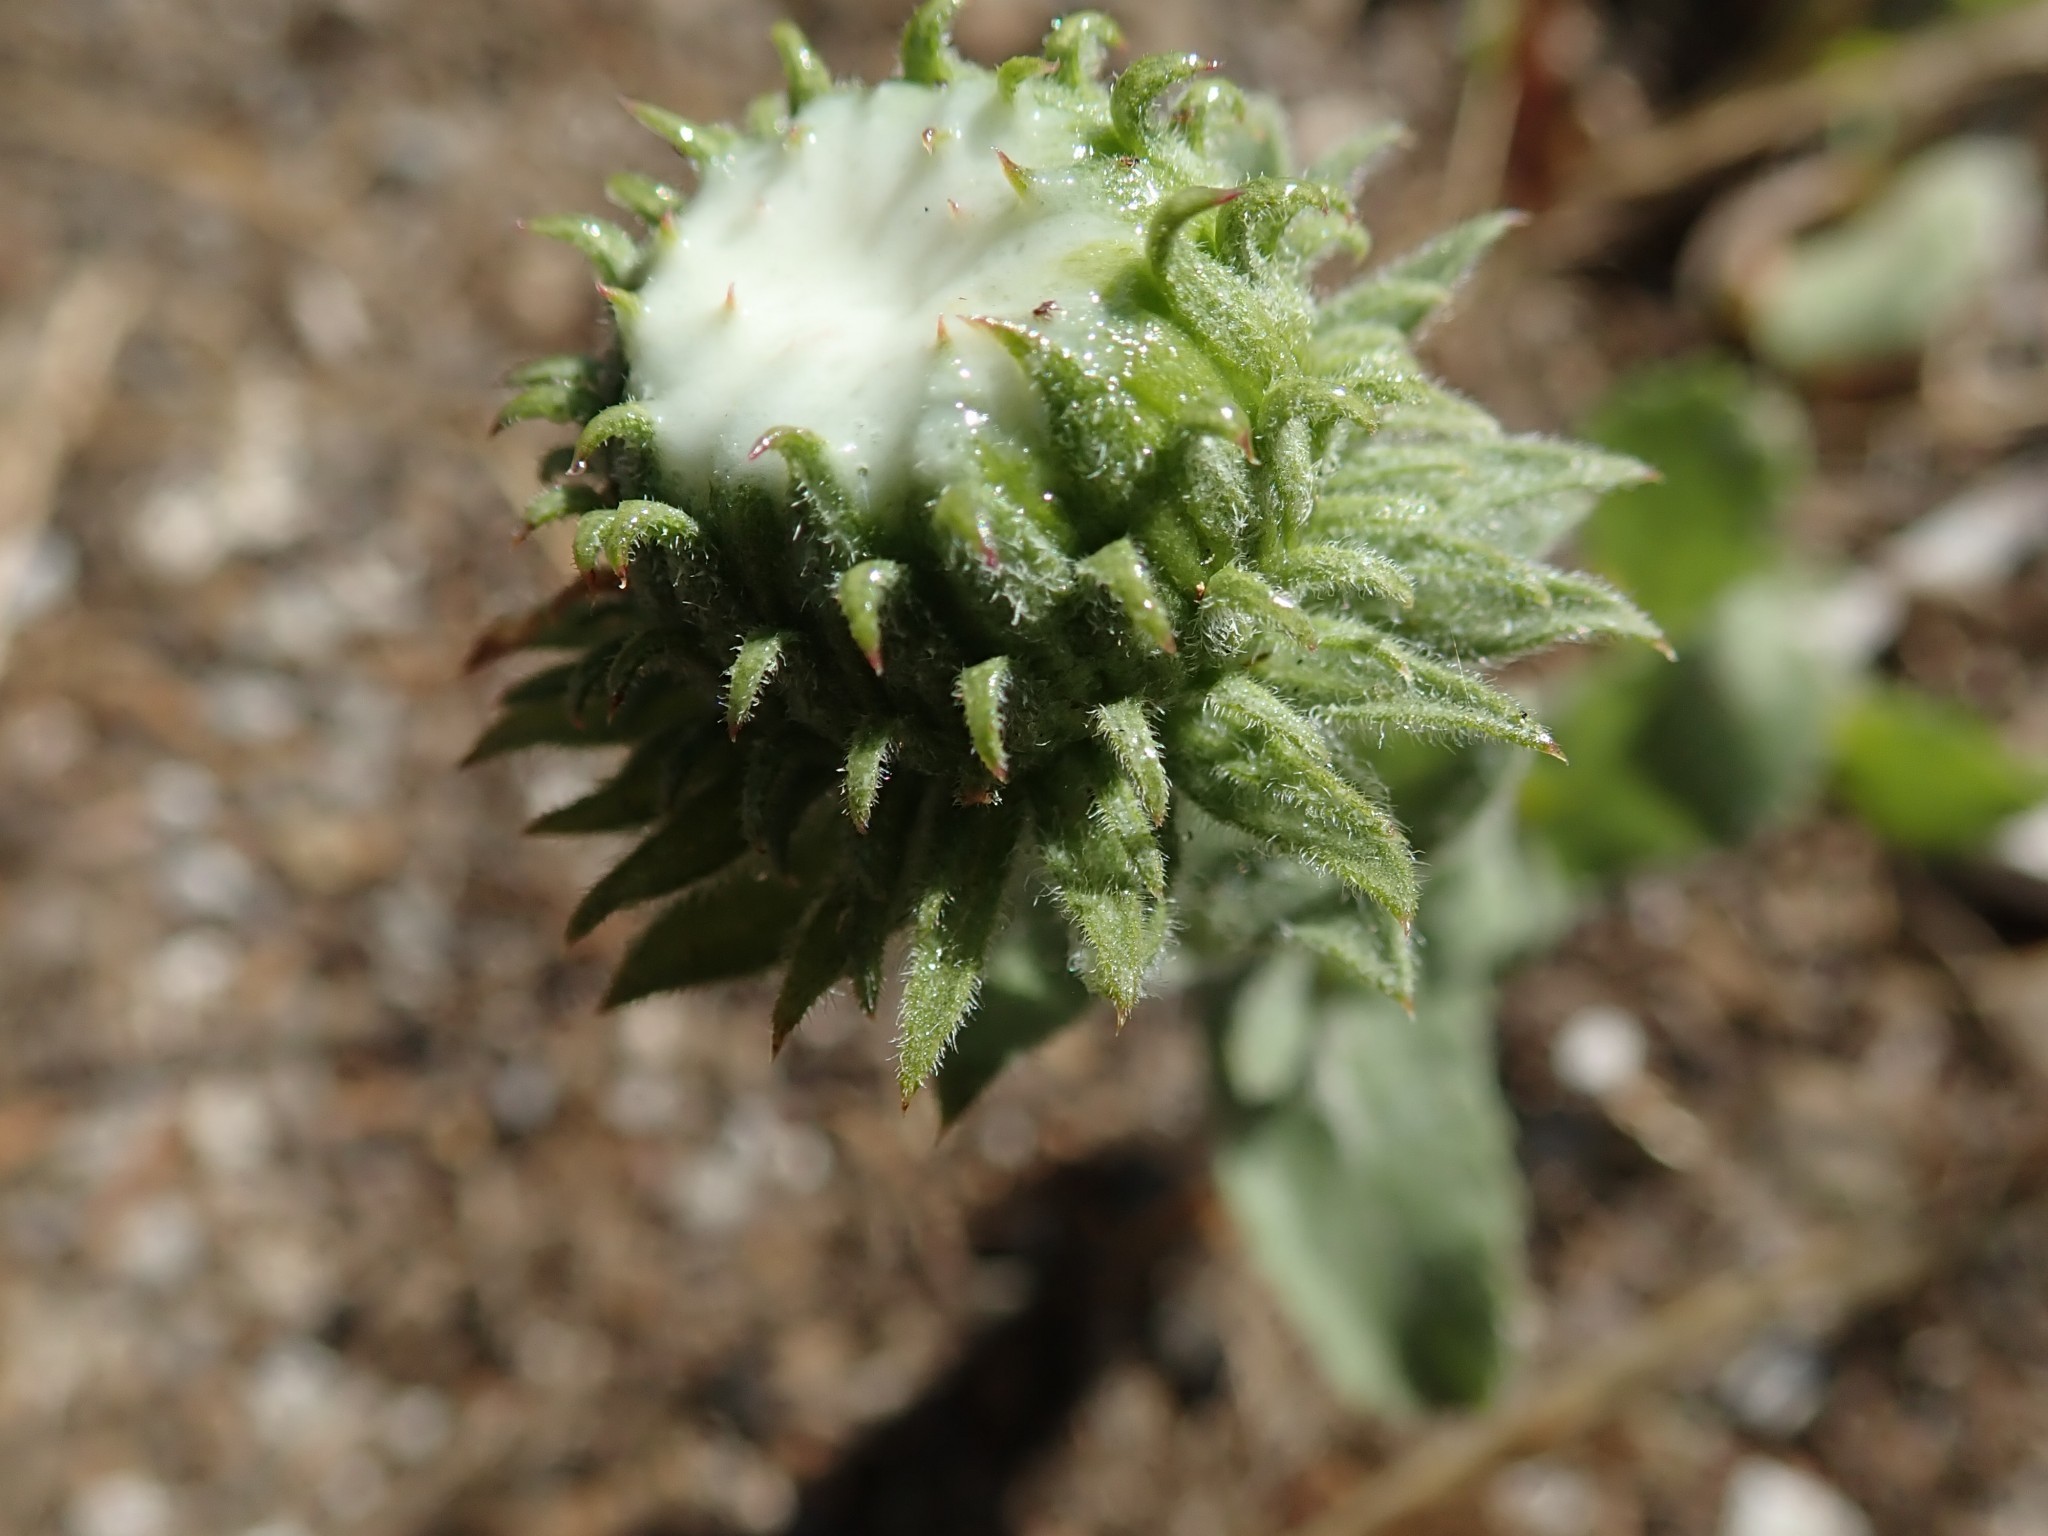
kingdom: Plantae
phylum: Tracheophyta
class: Magnoliopsida
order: Asterales
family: Asteraceae
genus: Grindelia
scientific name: Grindelia hirsutula
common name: Hairy gumweed
